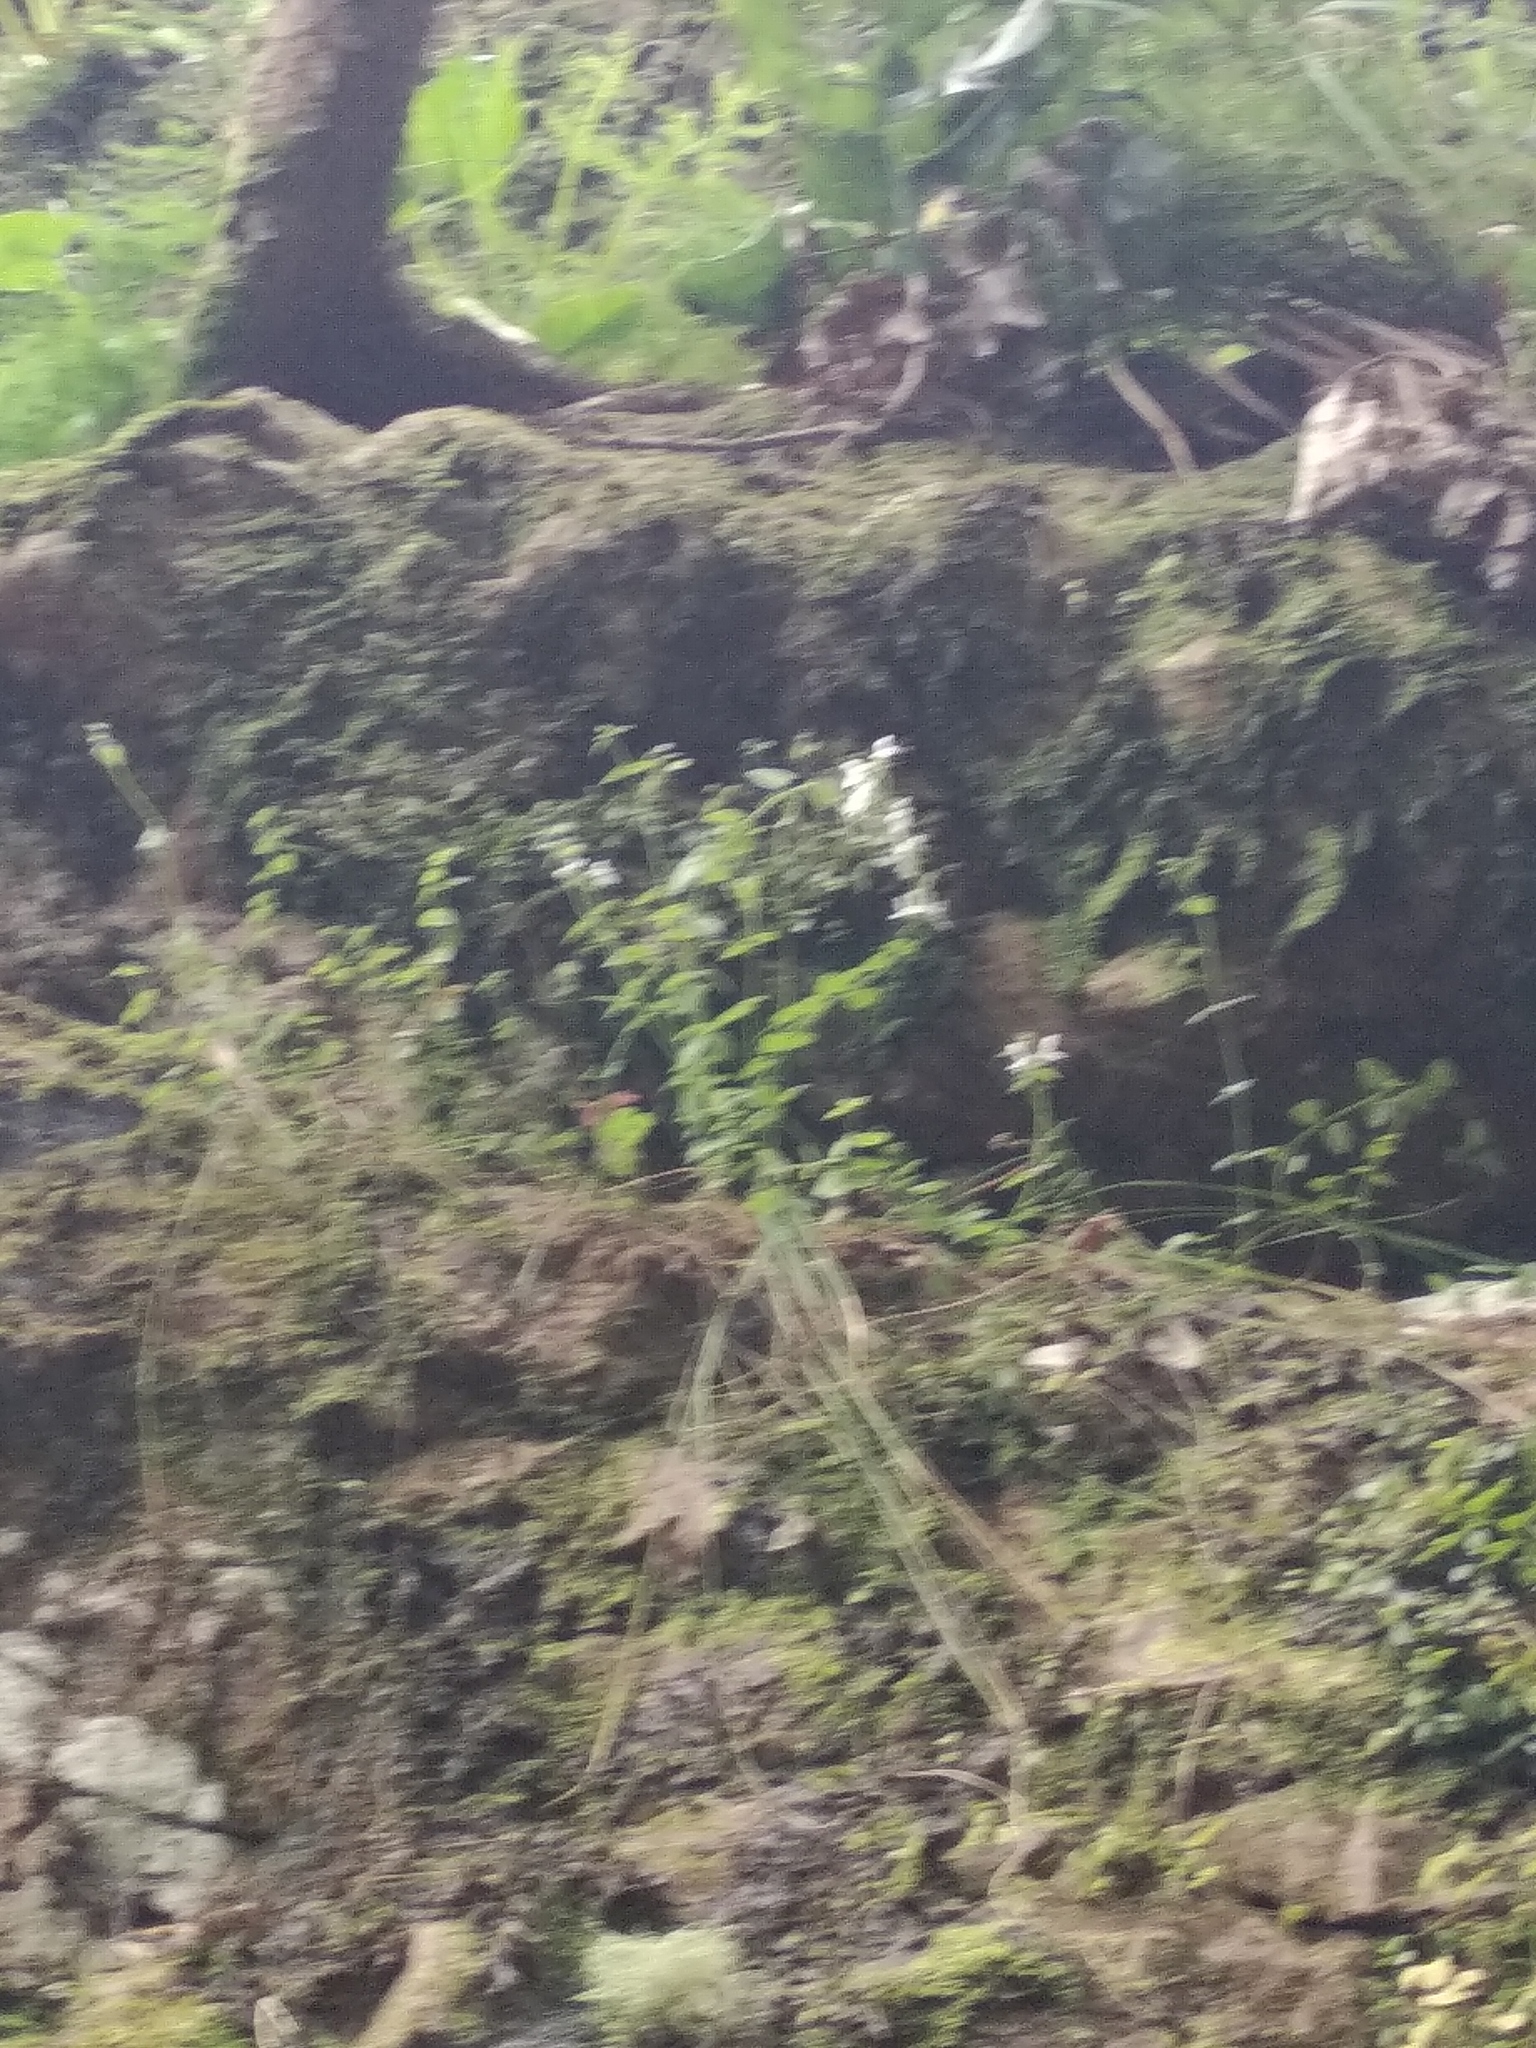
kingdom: Plantae
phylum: Tracheophyta
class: Magnoliopsida
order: Lamiales
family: Lamiaceae
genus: Stachys
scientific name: Stachys aethiopica
